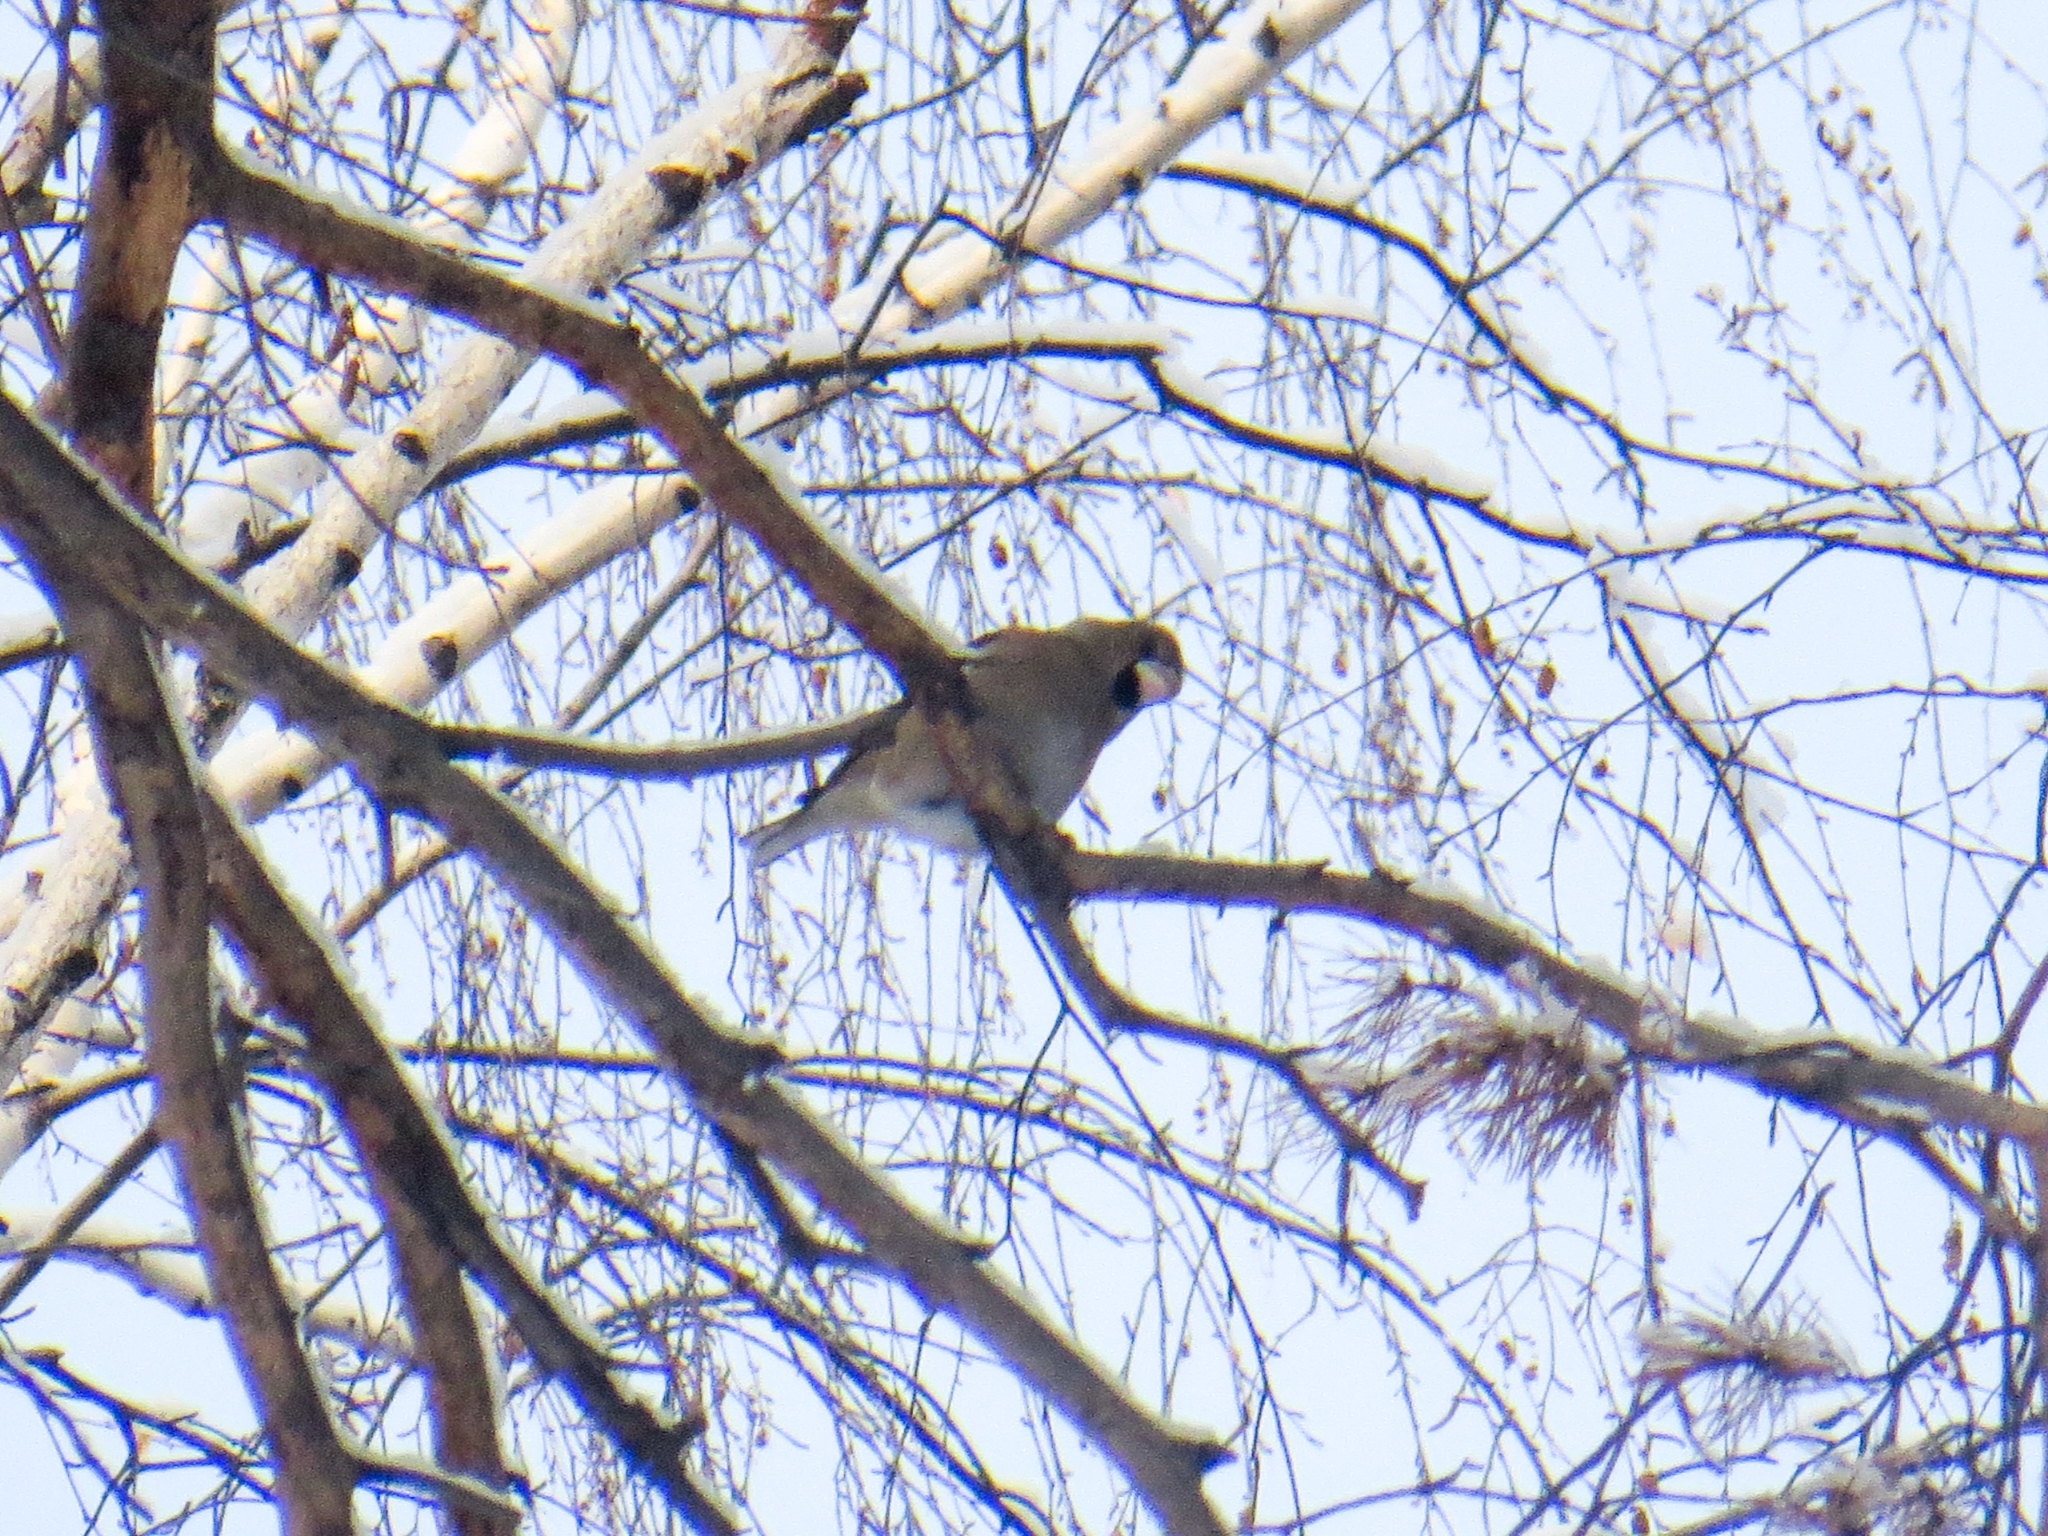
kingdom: Animalia
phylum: Chordata
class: Aves
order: Passeriformes
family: Fringillidae
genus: Coccothraustes
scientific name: Coccothraustes coccothraustes
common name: Hawfinch
